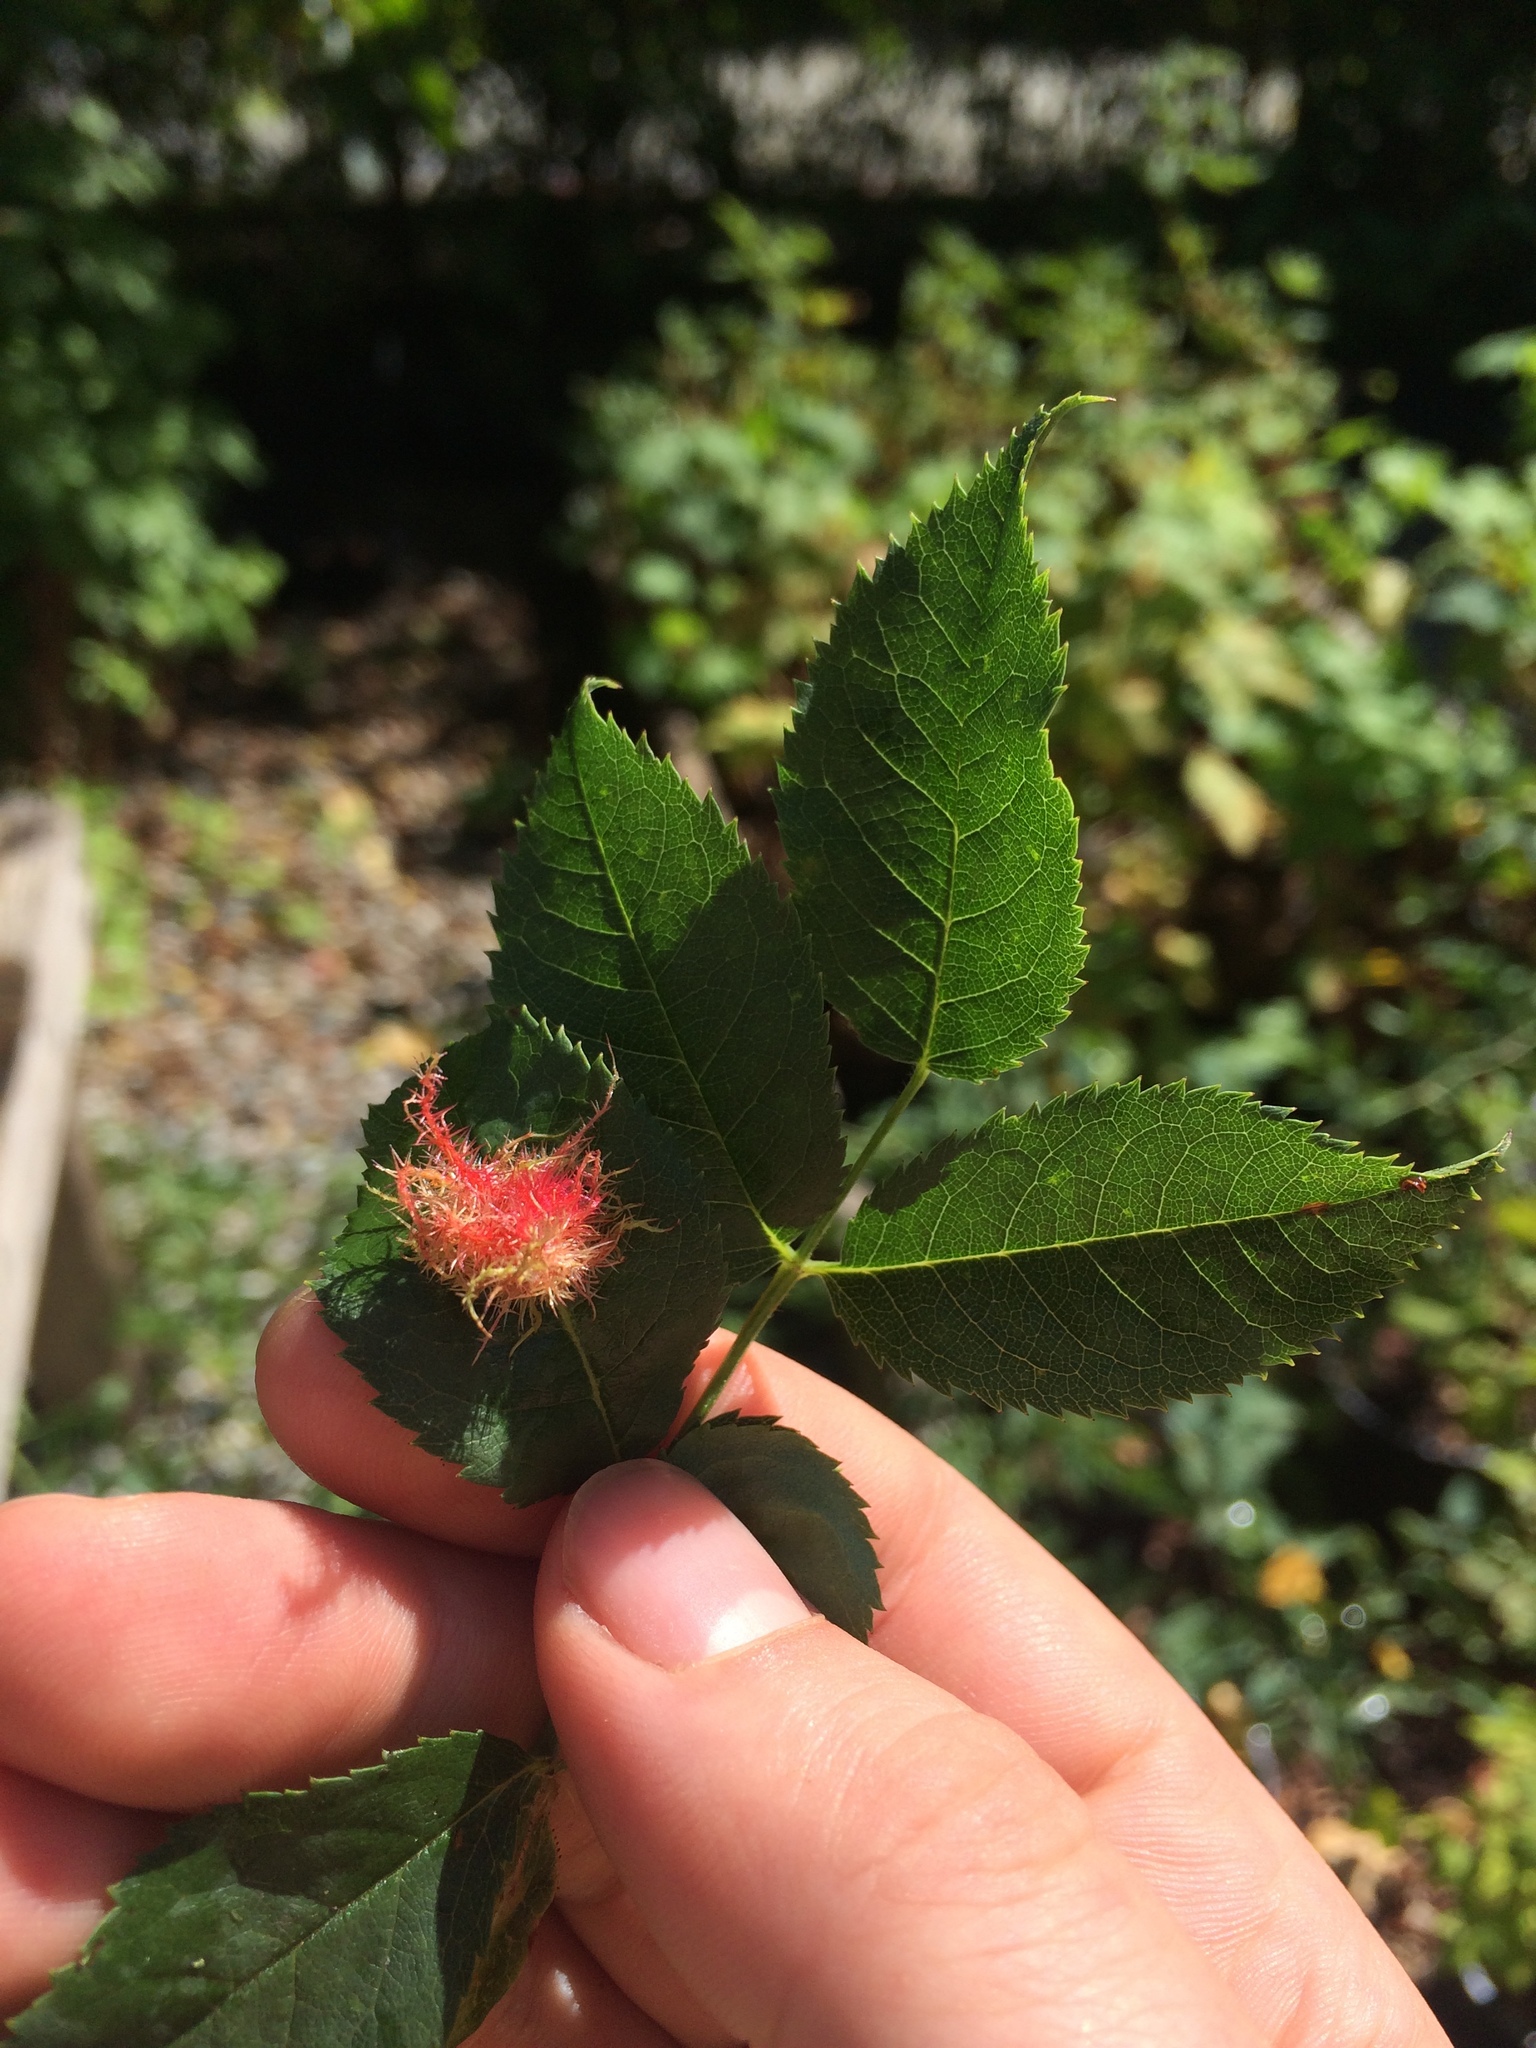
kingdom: Animalia
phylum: Arthropoda
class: Insecta
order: Hymenoptera
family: Cynipidae
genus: Diplolepis
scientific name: Diplolepis rosae
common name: Bedeguar gall
